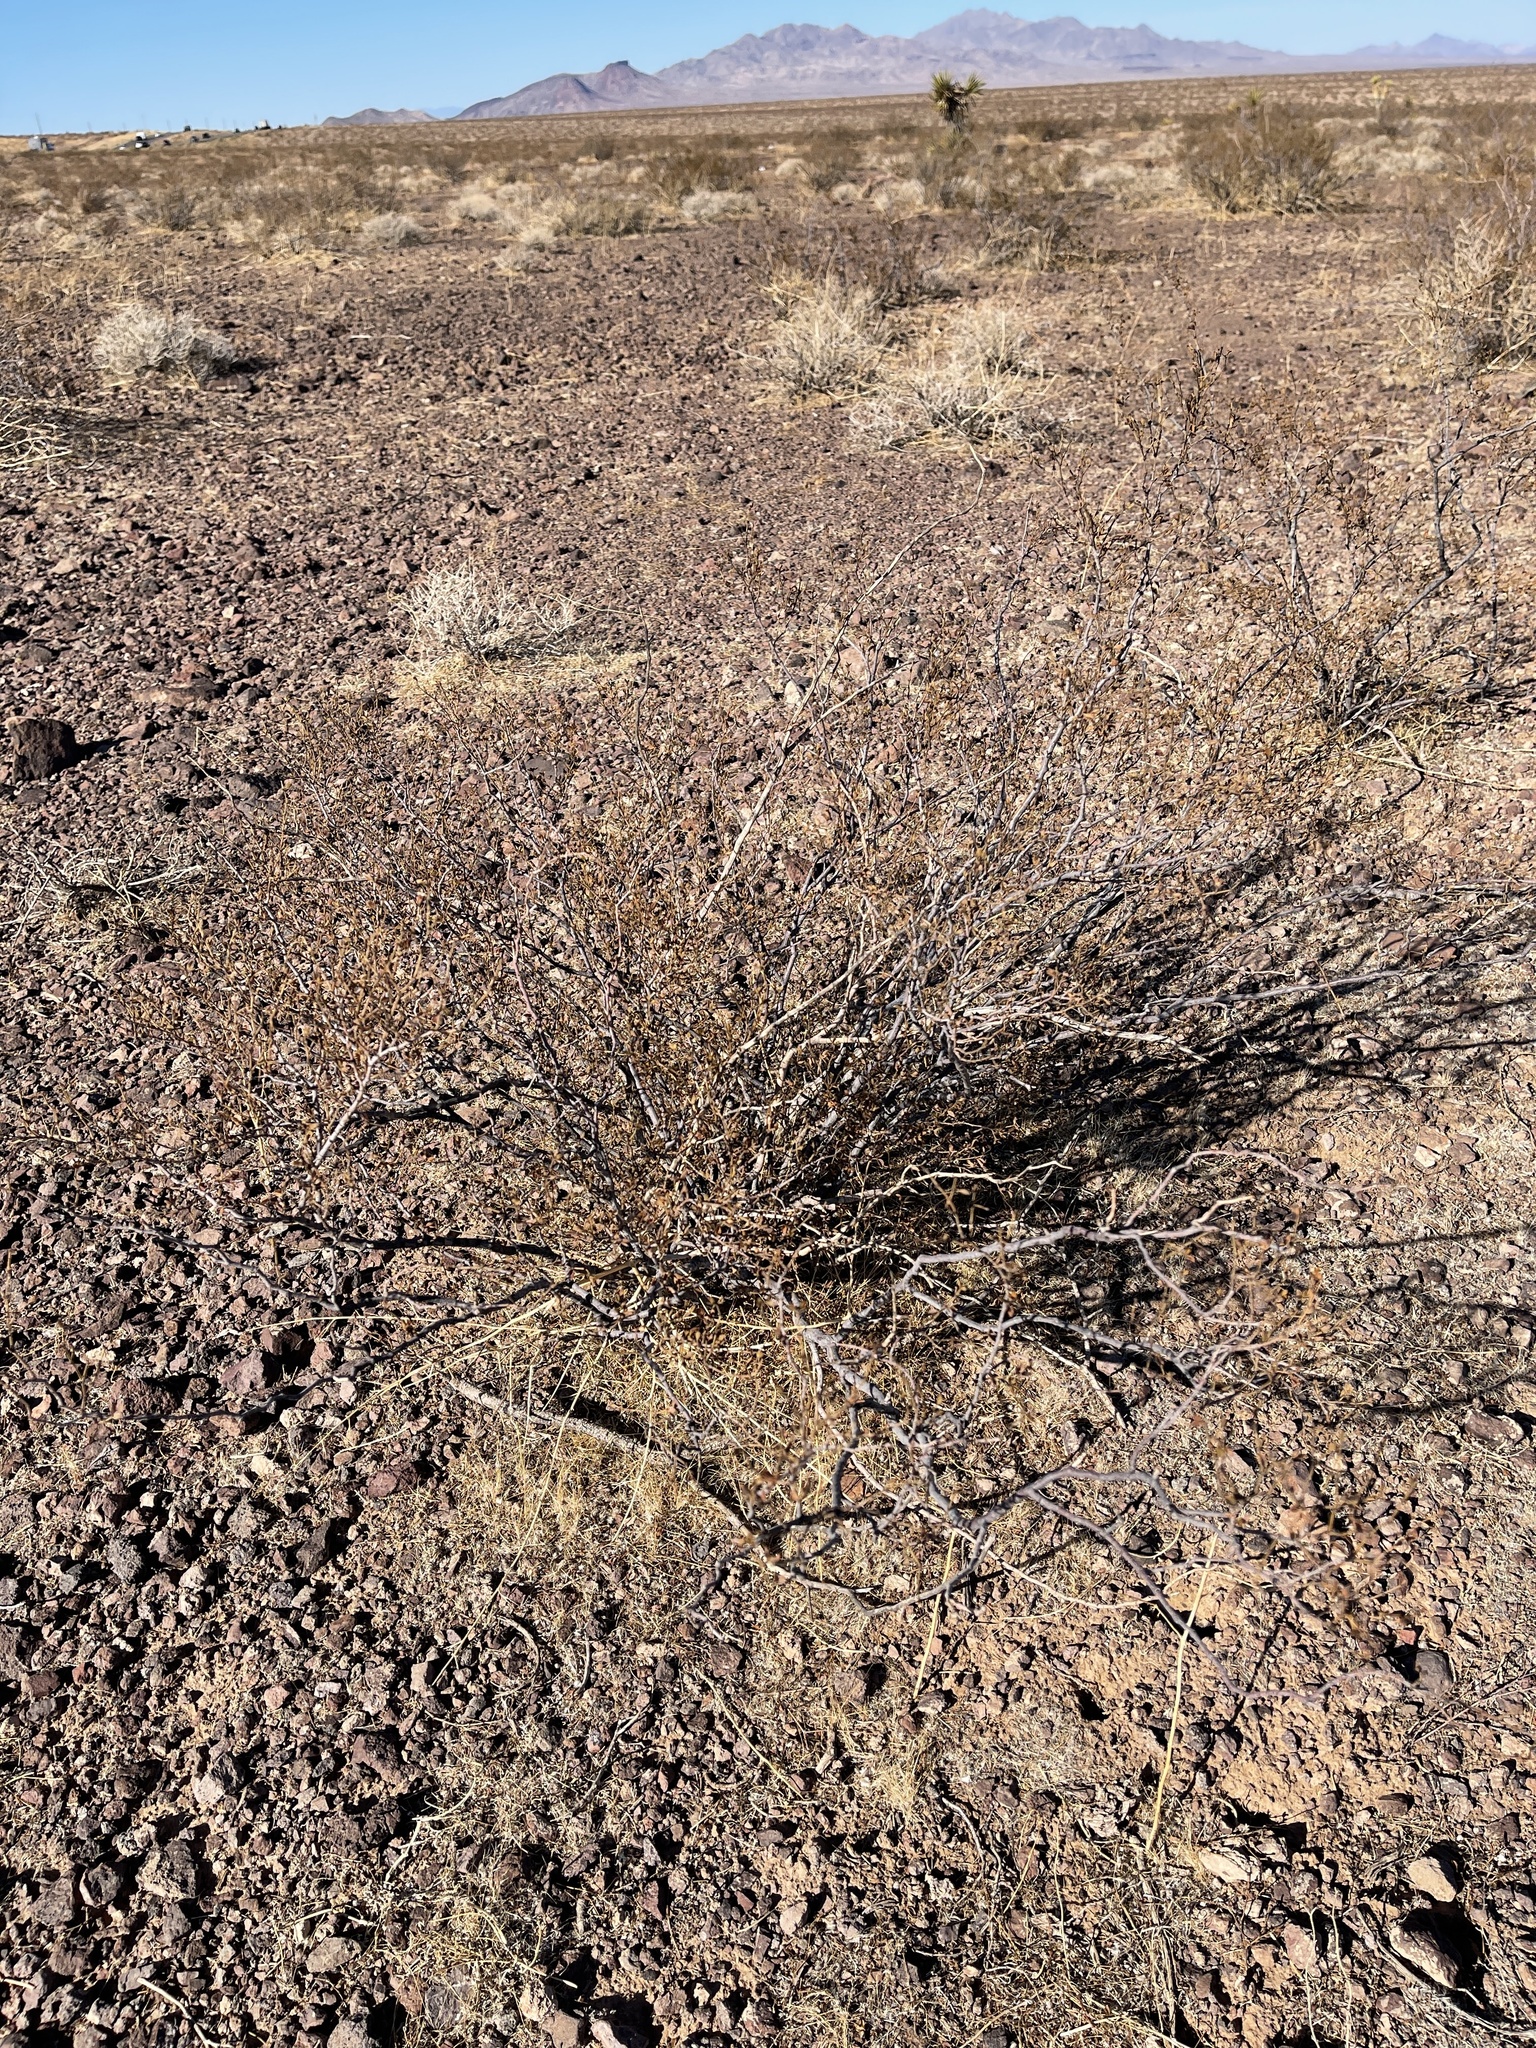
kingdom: Plantae
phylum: Tracheophyta
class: Magnoliopsida
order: Zygophyllales
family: Zygophyllaceae
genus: Larrea
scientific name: Larrea tridentata
